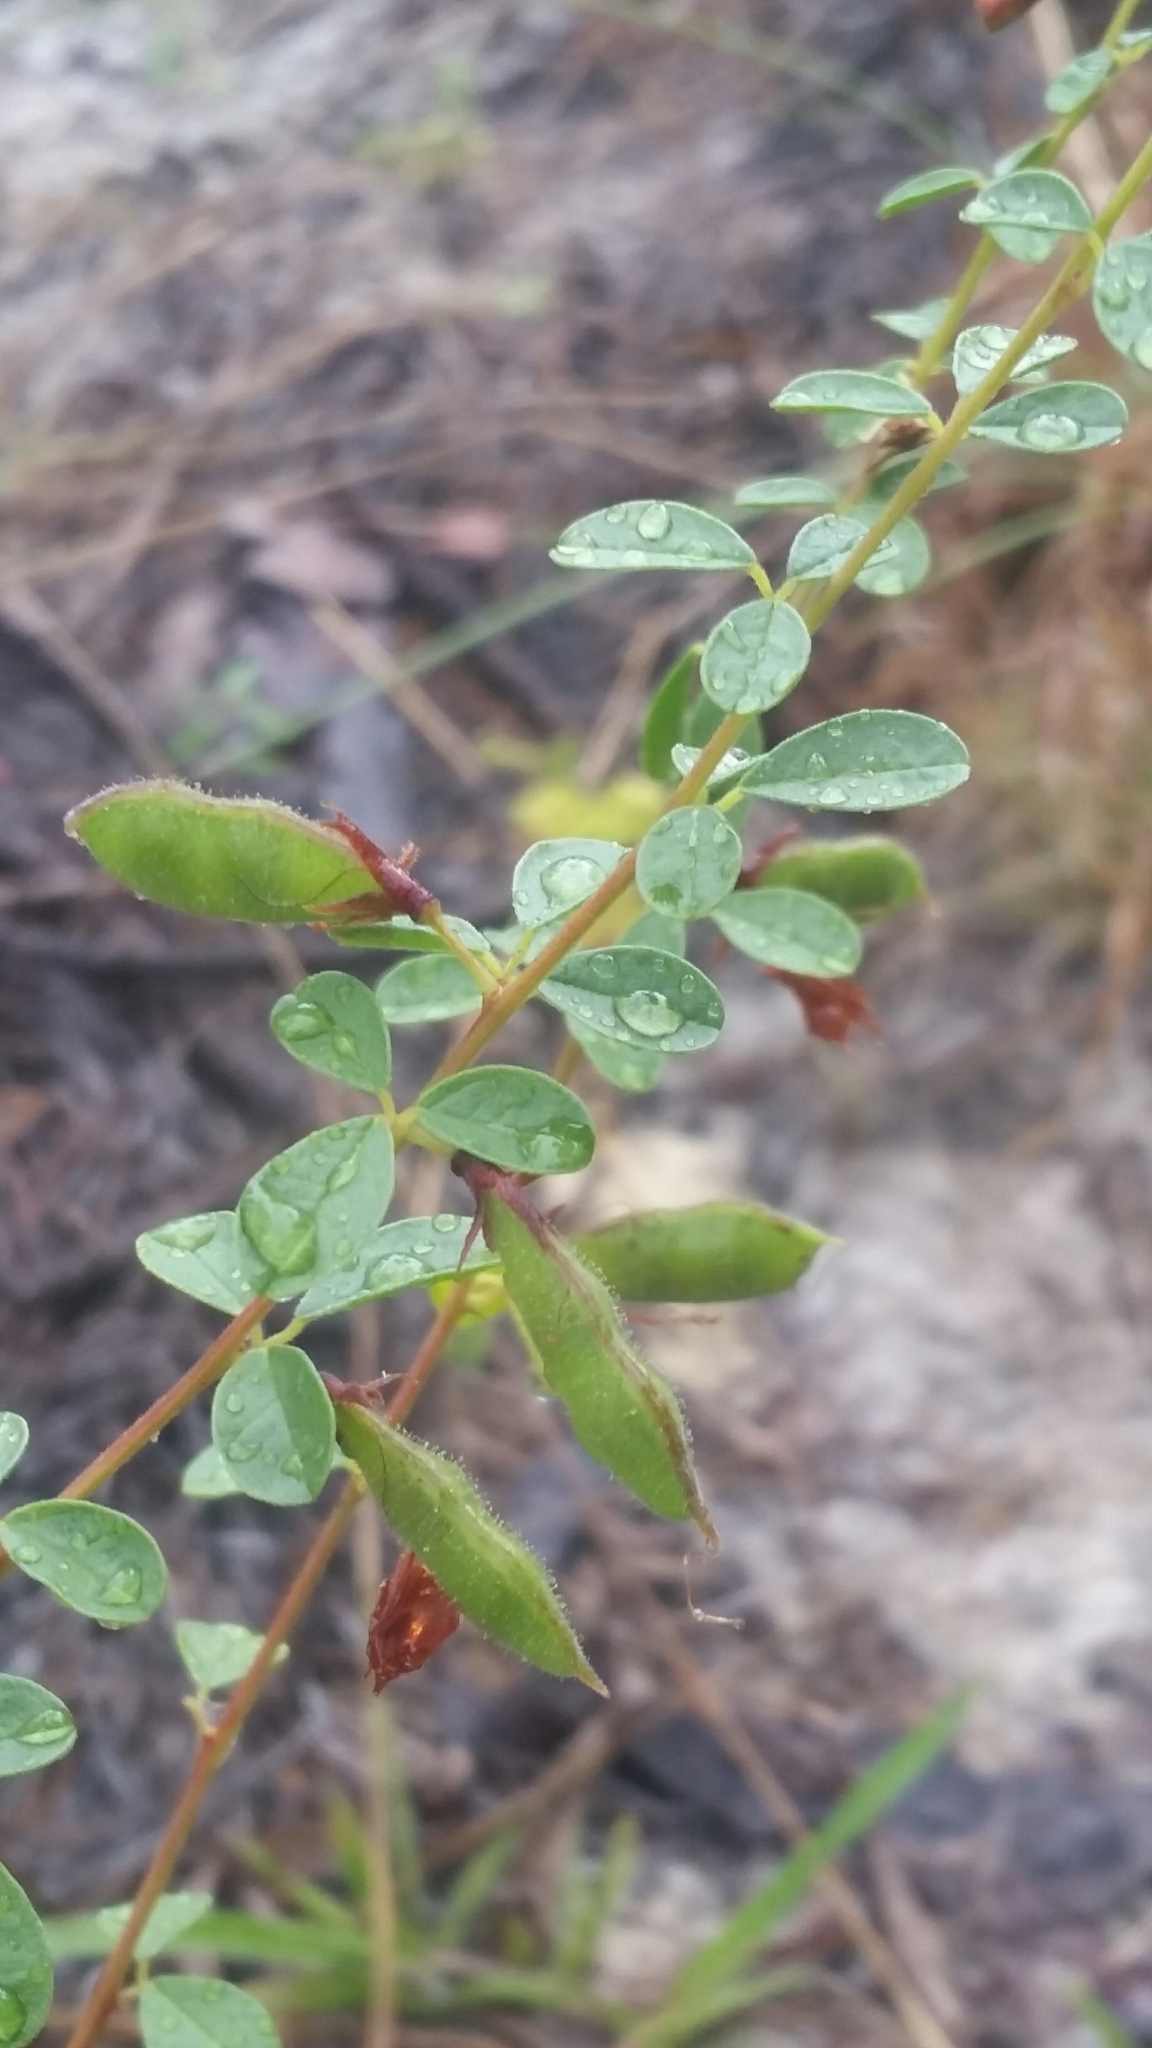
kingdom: Plantae
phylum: Tracheophyta
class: Magnoliopsida
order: Fabales
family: Fabaceae
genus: Rhynchosia
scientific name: Rhynchosia cytisoides
